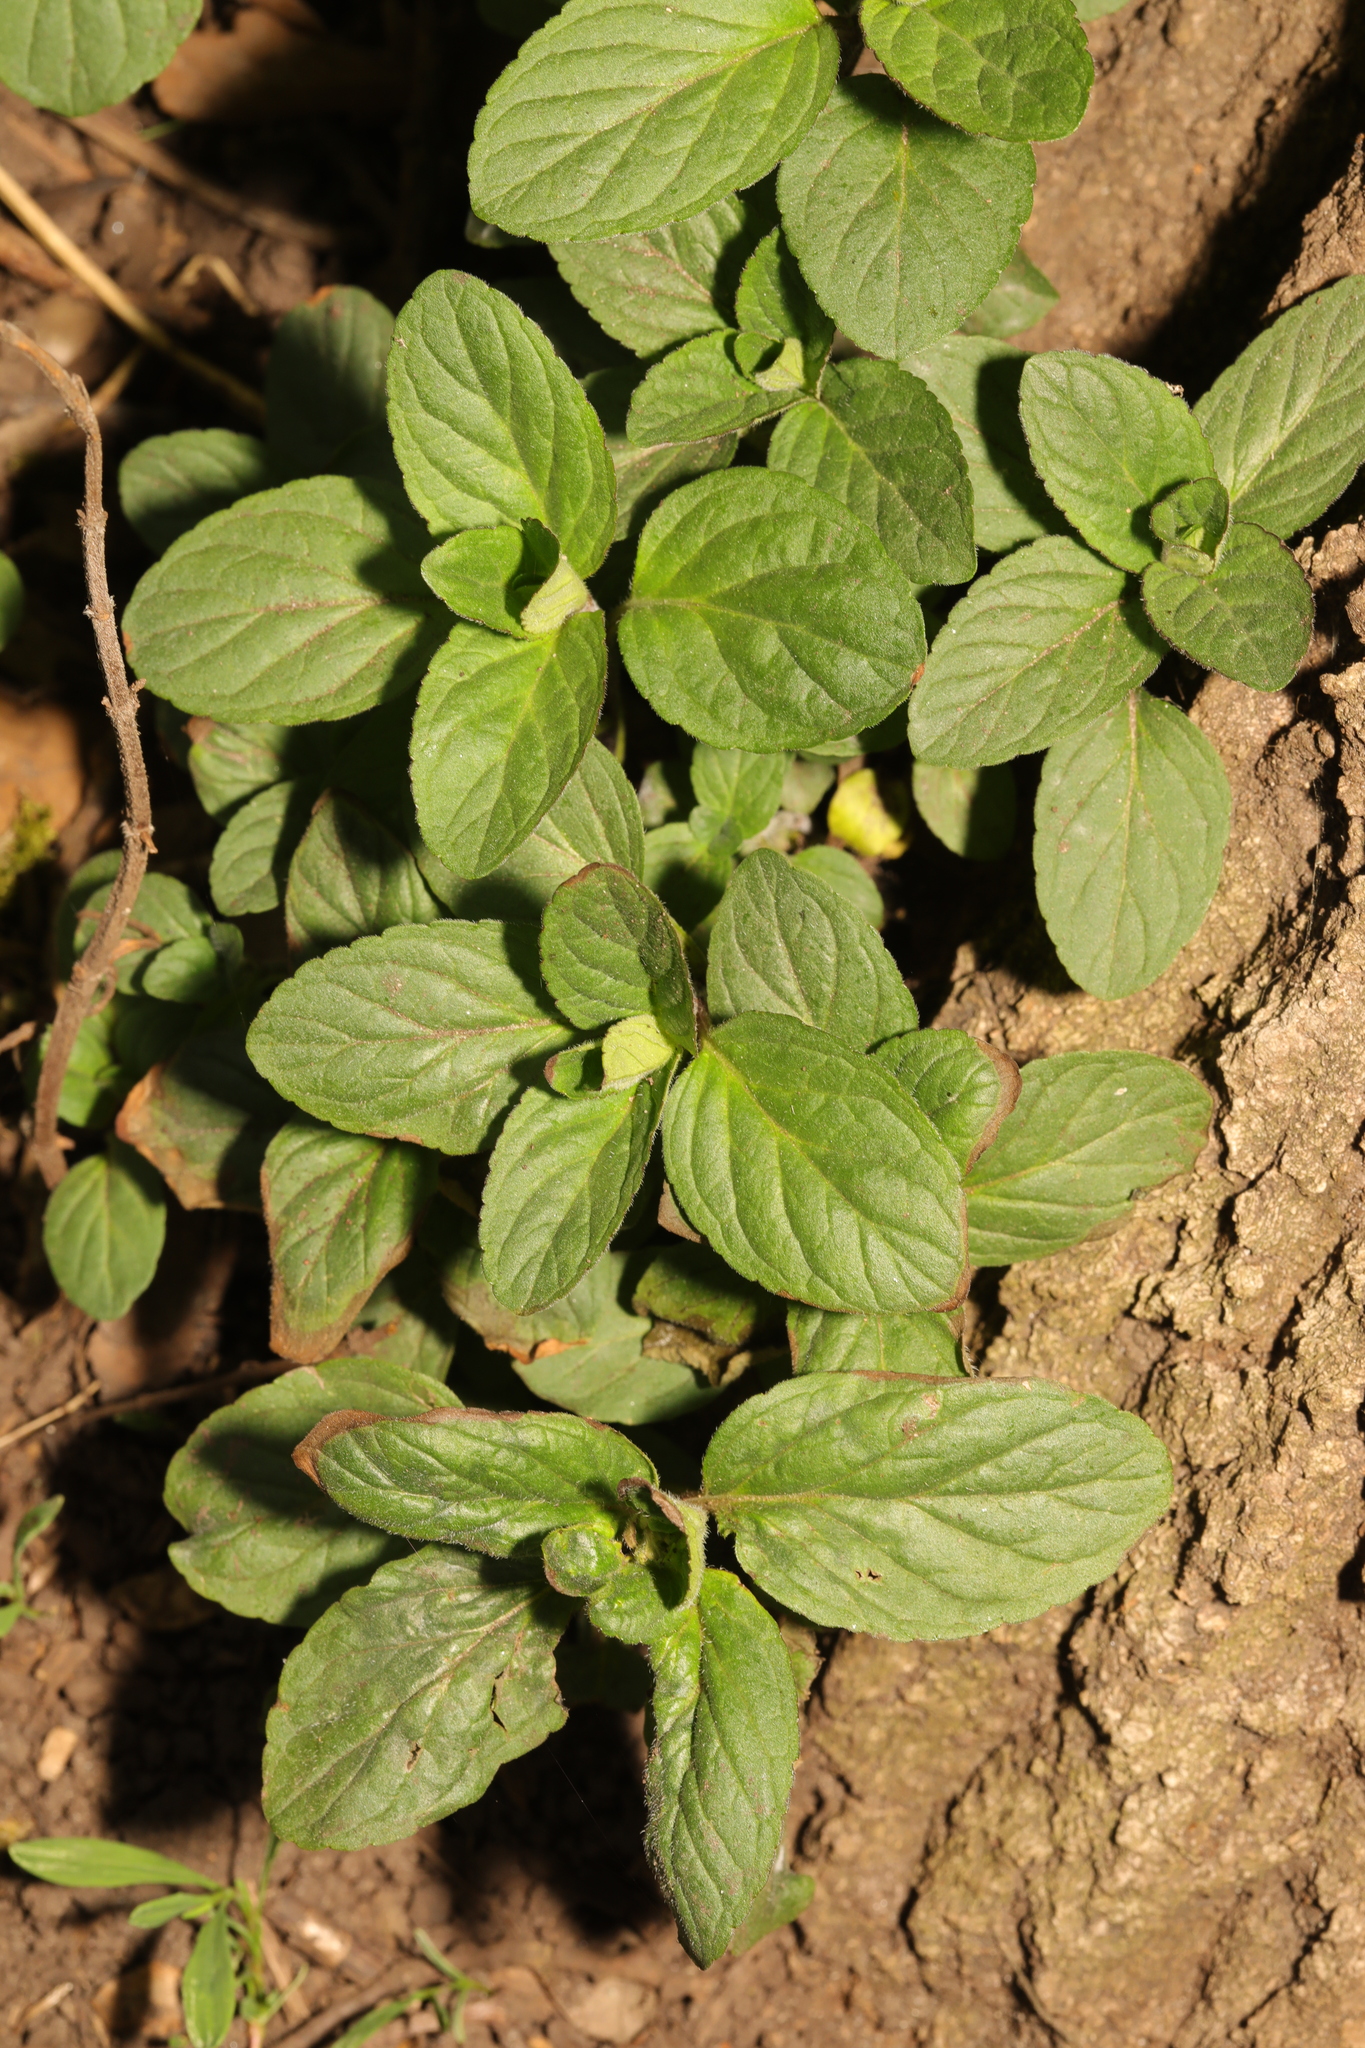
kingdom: Plantae
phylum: Tracheophyta
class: Magnoliopsida
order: Lamiales
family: Lamiaceae
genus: Mentha
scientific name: Mentha aquatica
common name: Water mint
